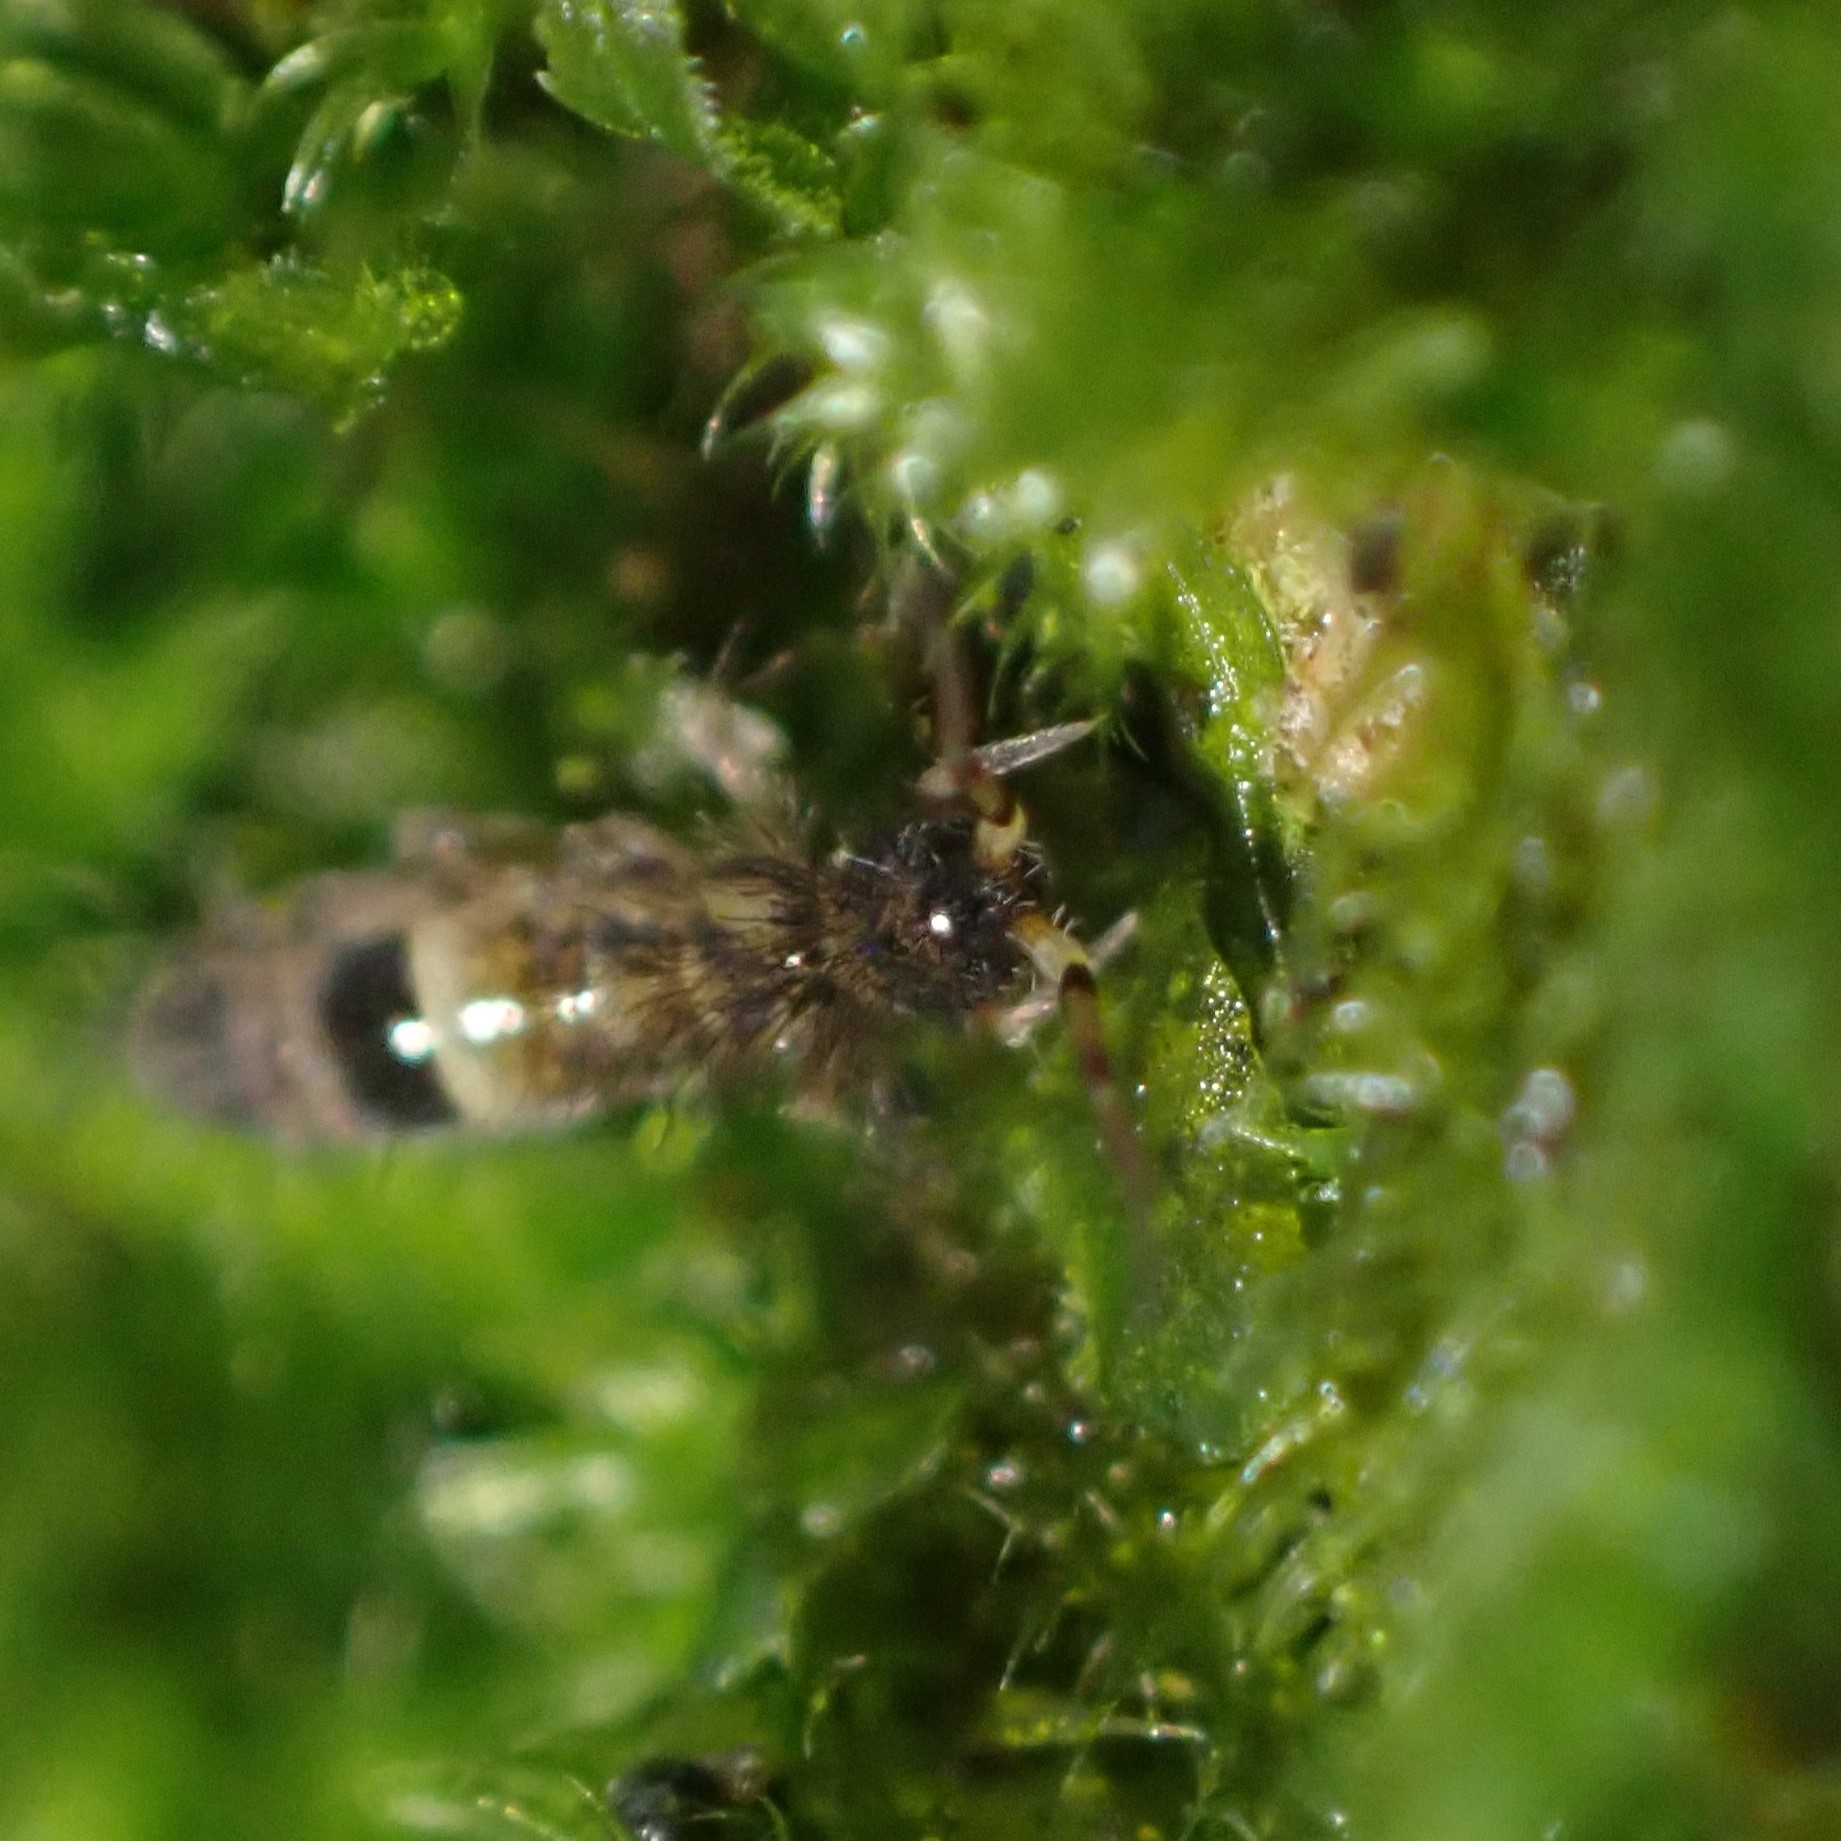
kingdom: Animalia
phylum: Arthropoda
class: Collembola
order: Entomobryomorpha
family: Orchesellidae
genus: Orchesella
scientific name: Orchesella cincta
